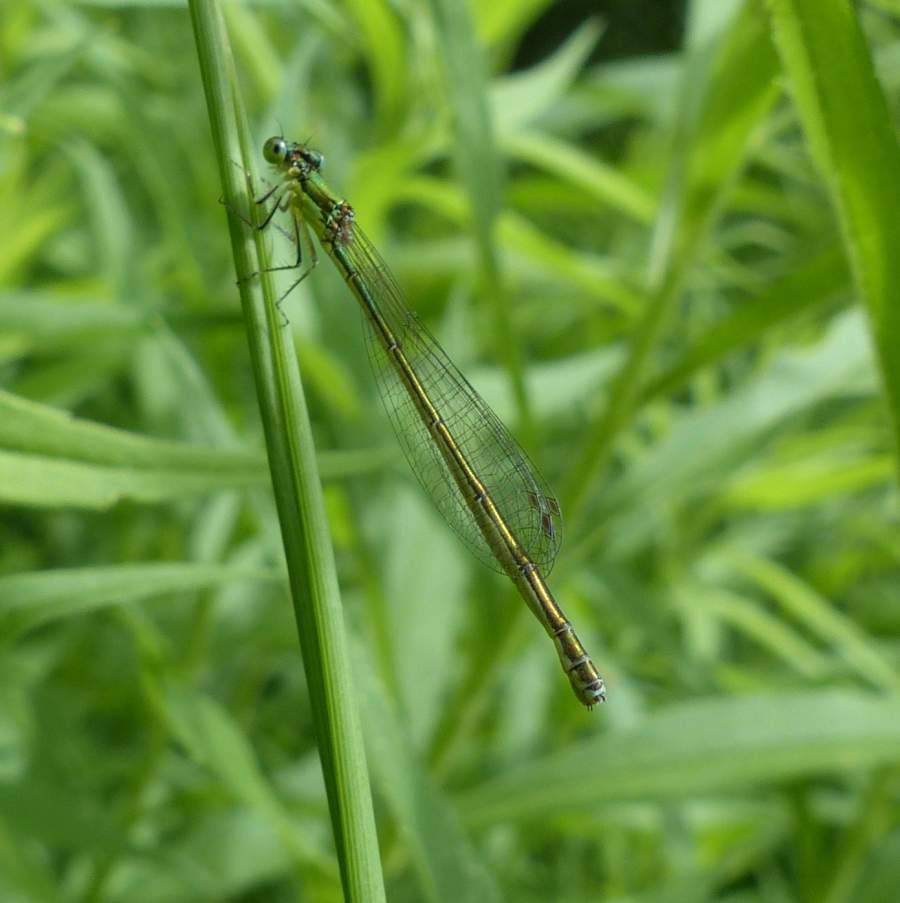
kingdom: Animalia
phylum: Arthropoda
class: Insecta
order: Odonata
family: Coenagrionidae
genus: Nehalennia
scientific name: Nehalennia irene
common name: Sedge sprite
